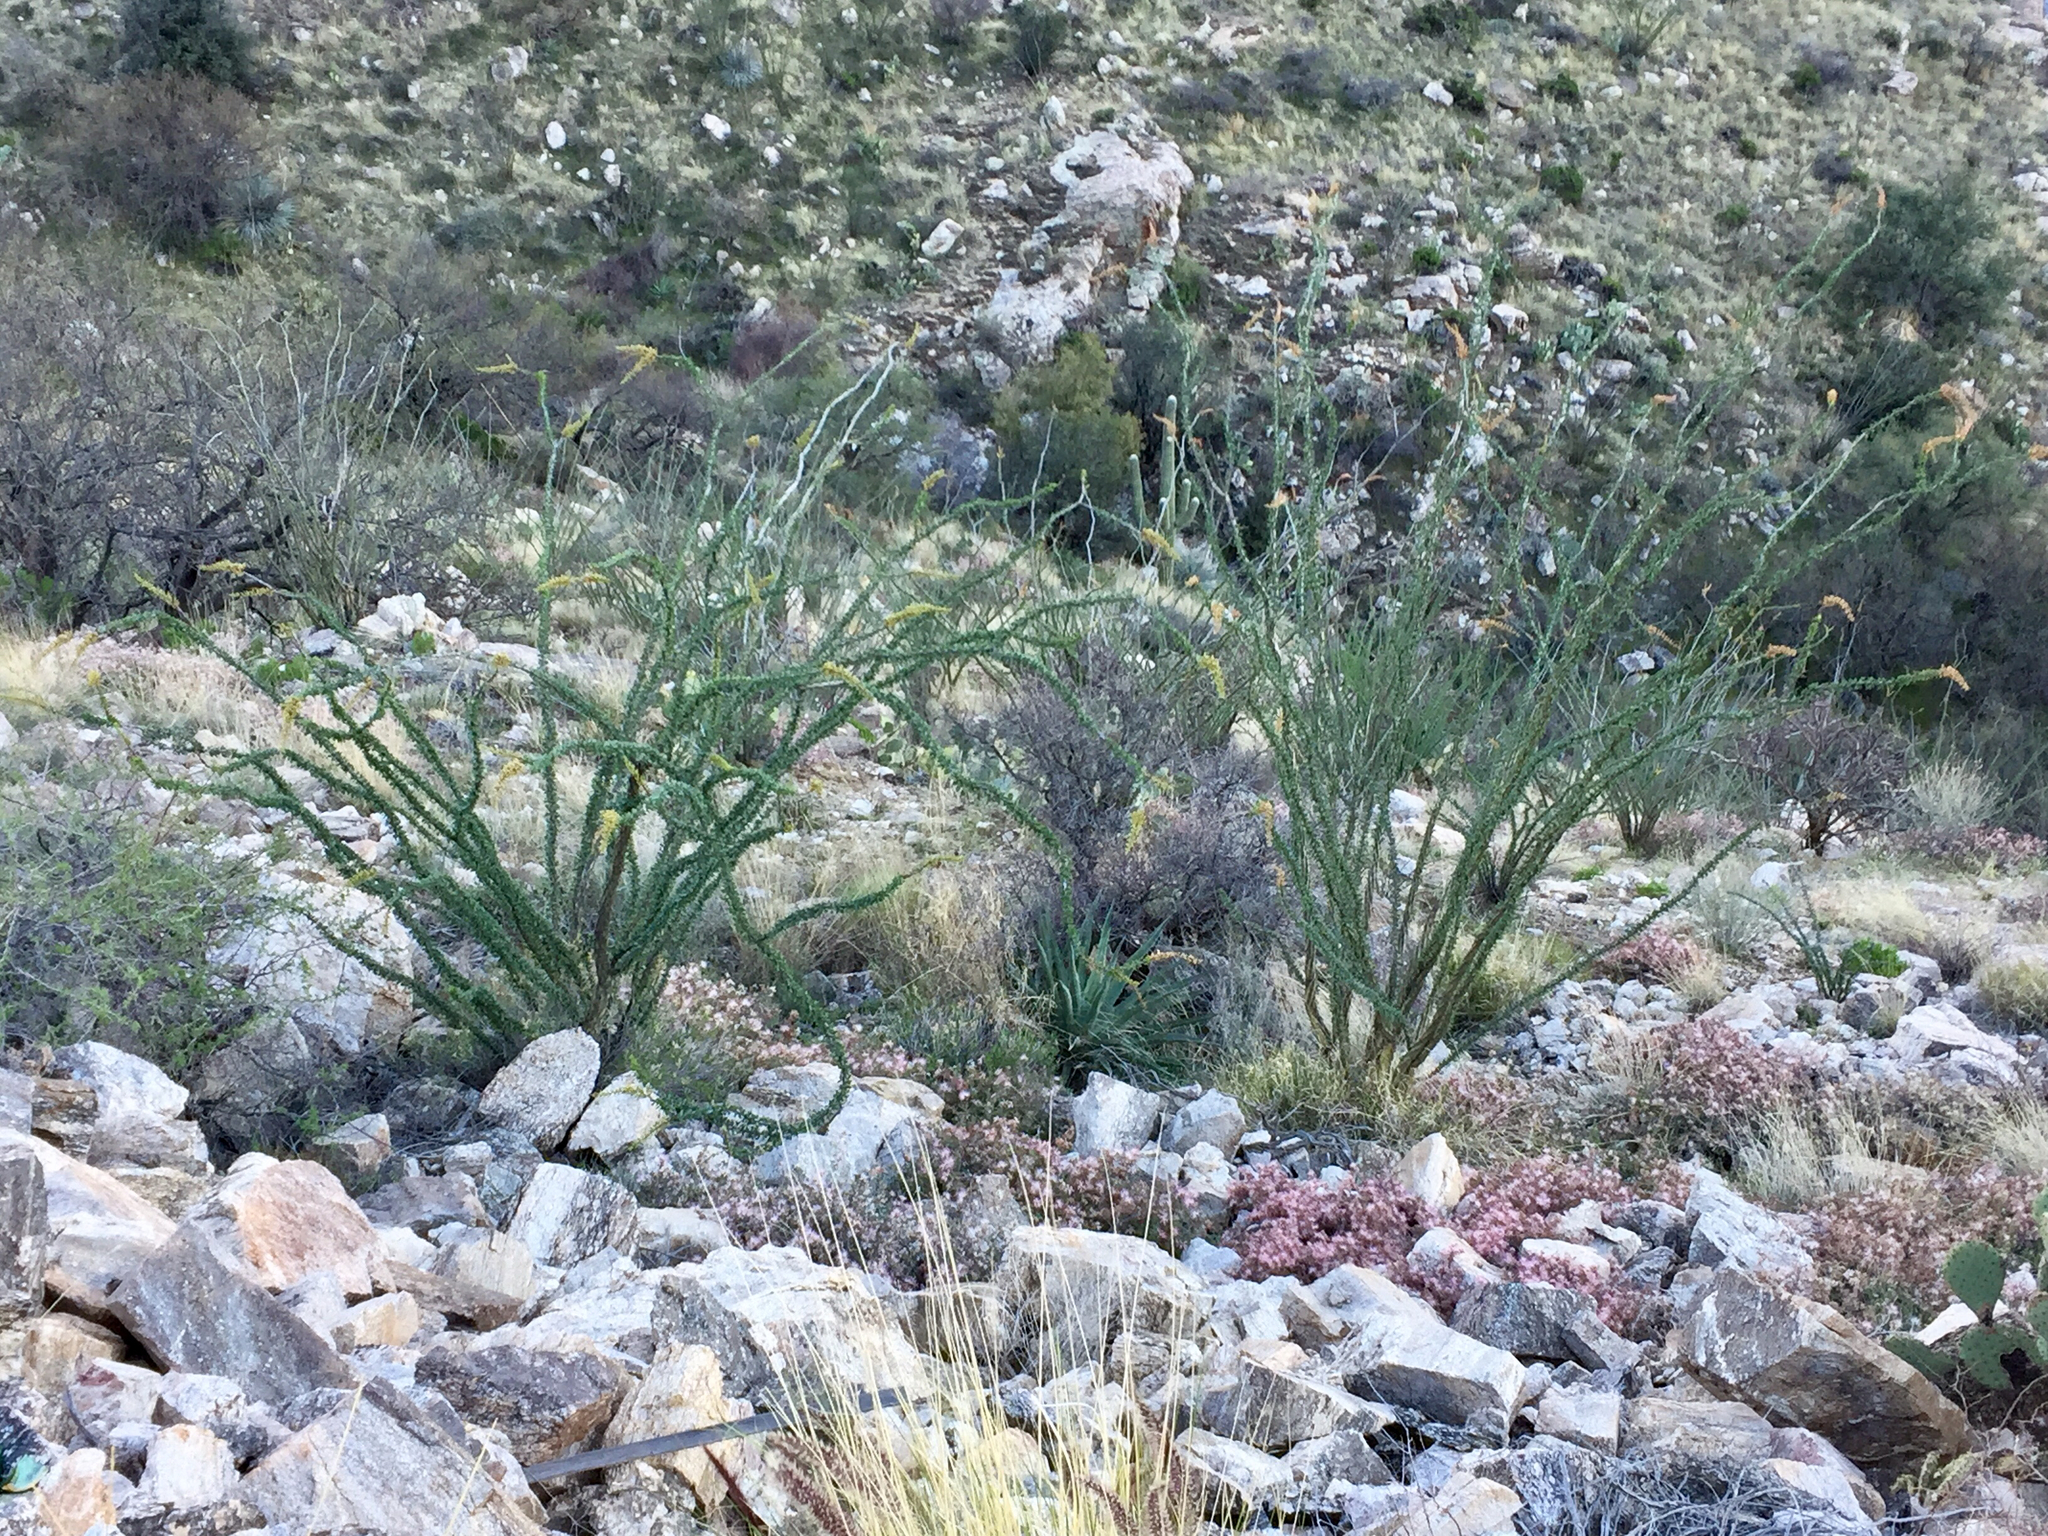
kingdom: Plantae
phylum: Tracheophyta
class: Magnoliopsida
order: Ericales
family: Fouquieriaceae
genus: Fouquieria
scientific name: Fouquieria splendens
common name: Vine-cactus
